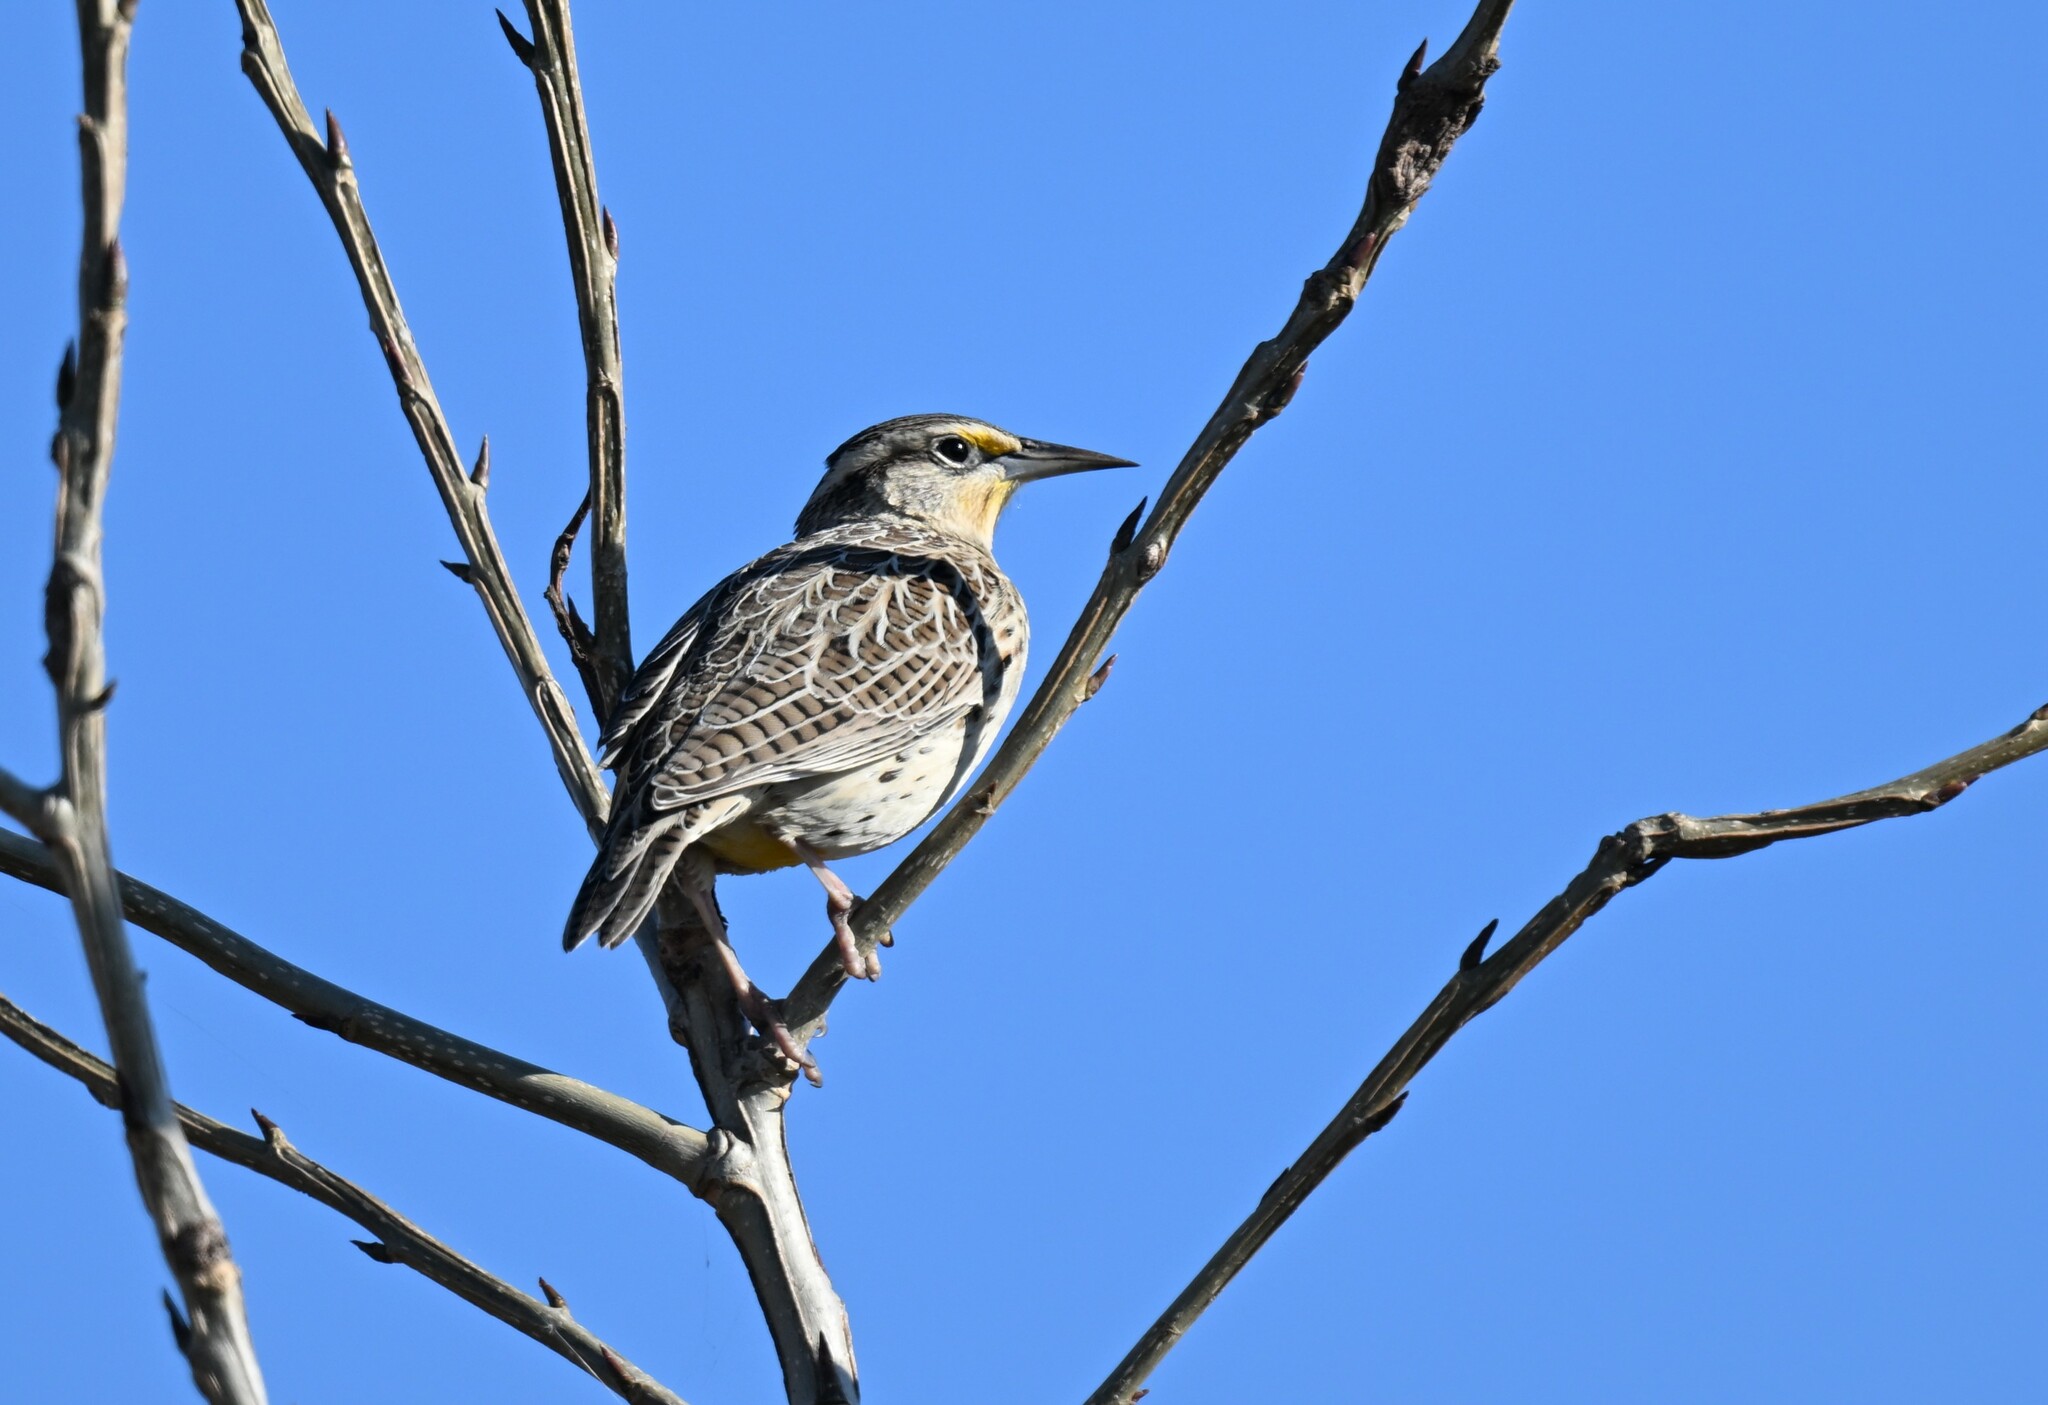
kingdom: Animalia
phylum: Chordata
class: Aves
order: Passeriformes
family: Icteridae
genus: Sturnella
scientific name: Sturnella neglecta
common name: Western meadowlark
